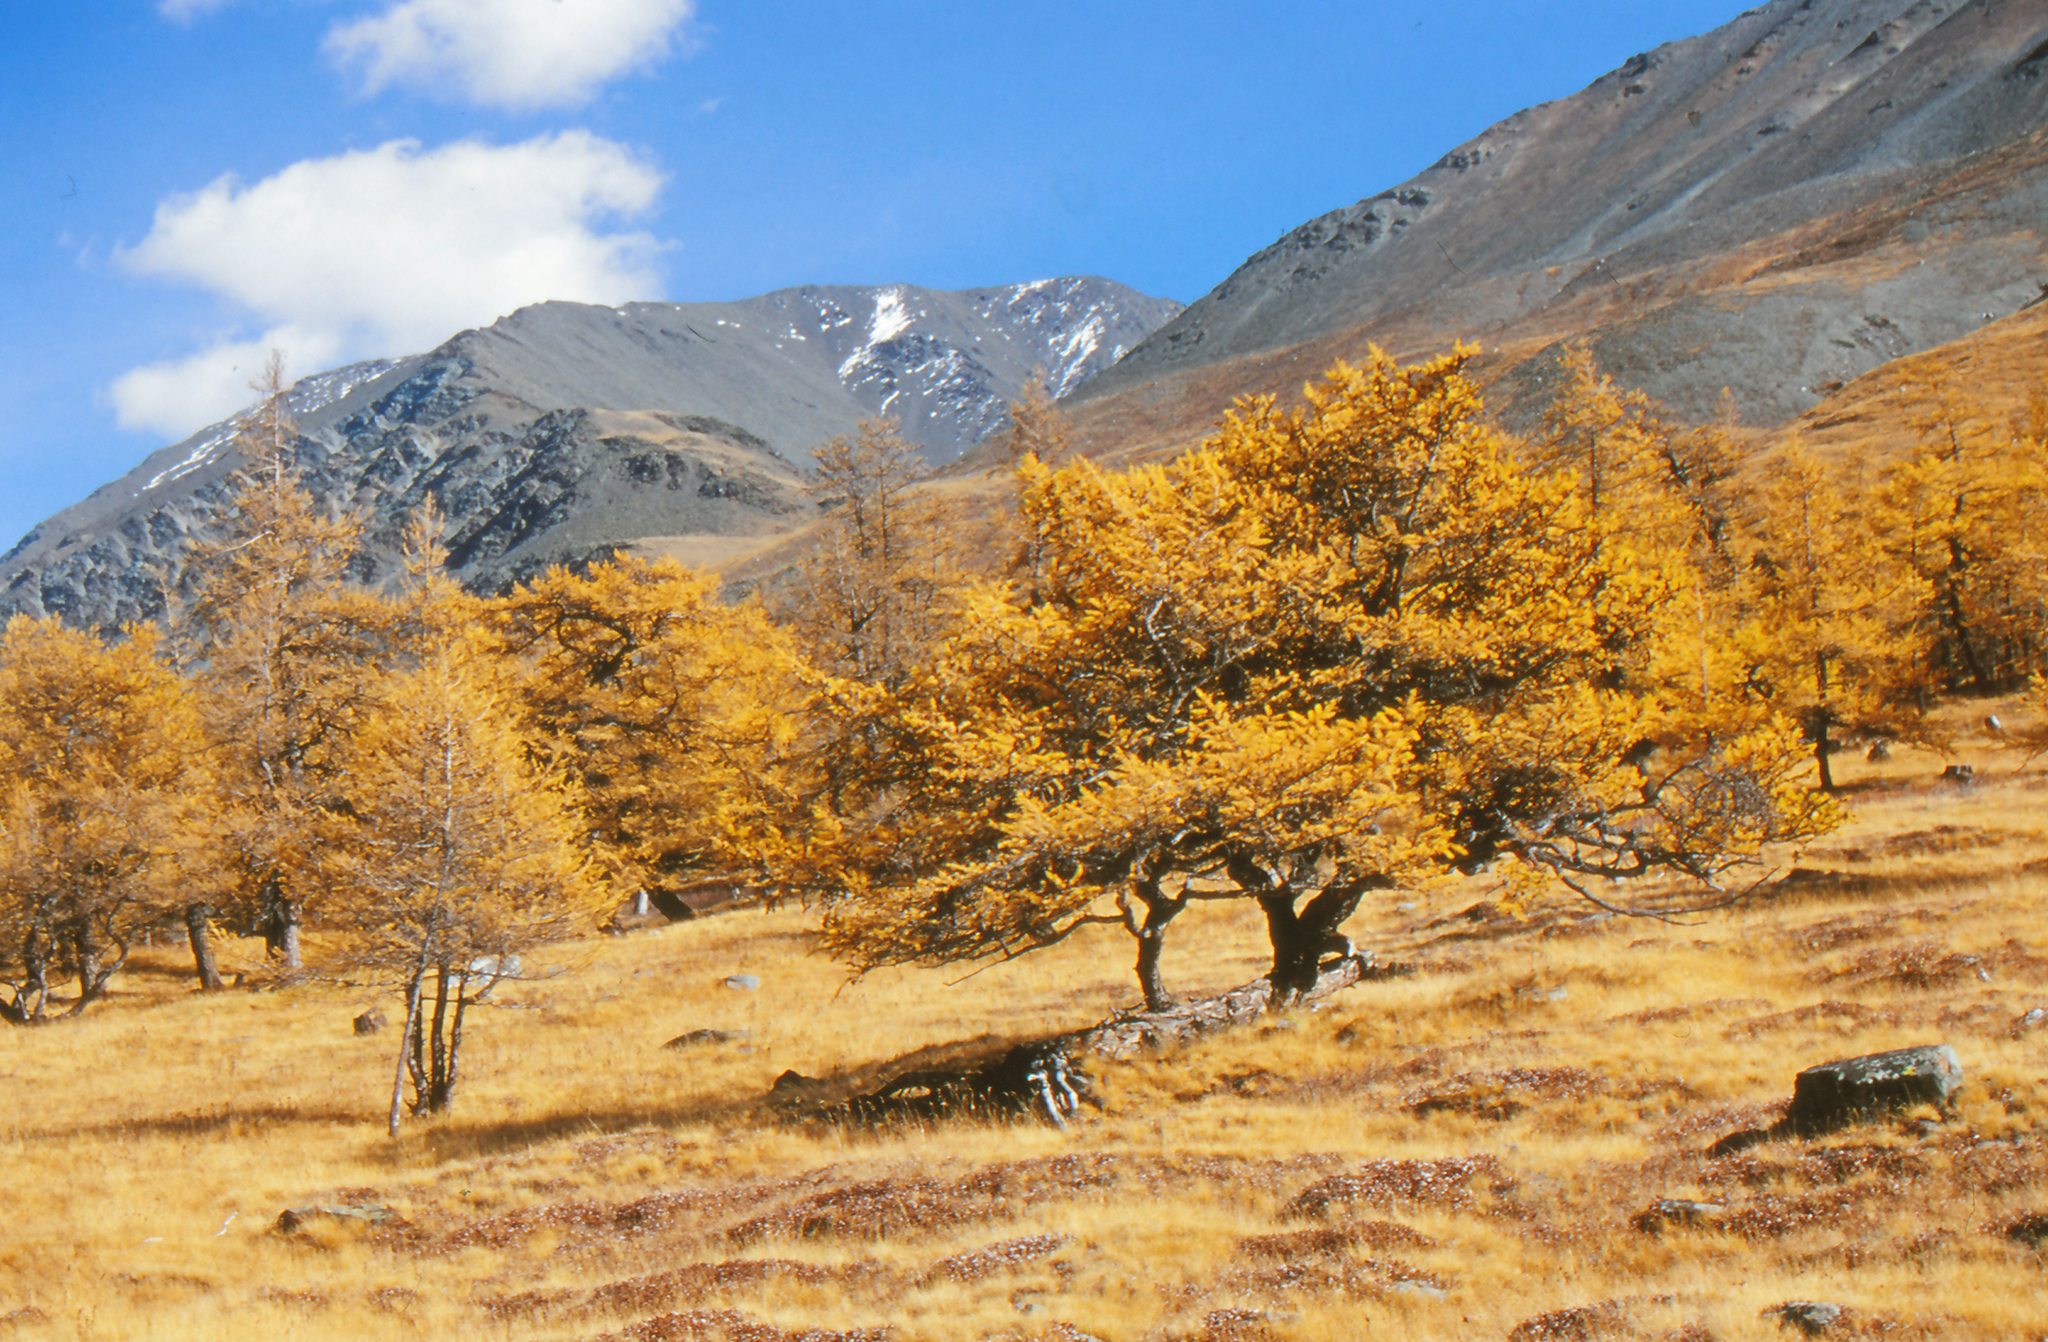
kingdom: Plantae
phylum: Tracheophyta
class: Pinopsida
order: Pinales
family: Pinaceae
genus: Larix
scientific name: Larix sibirica
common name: Siberian larch
